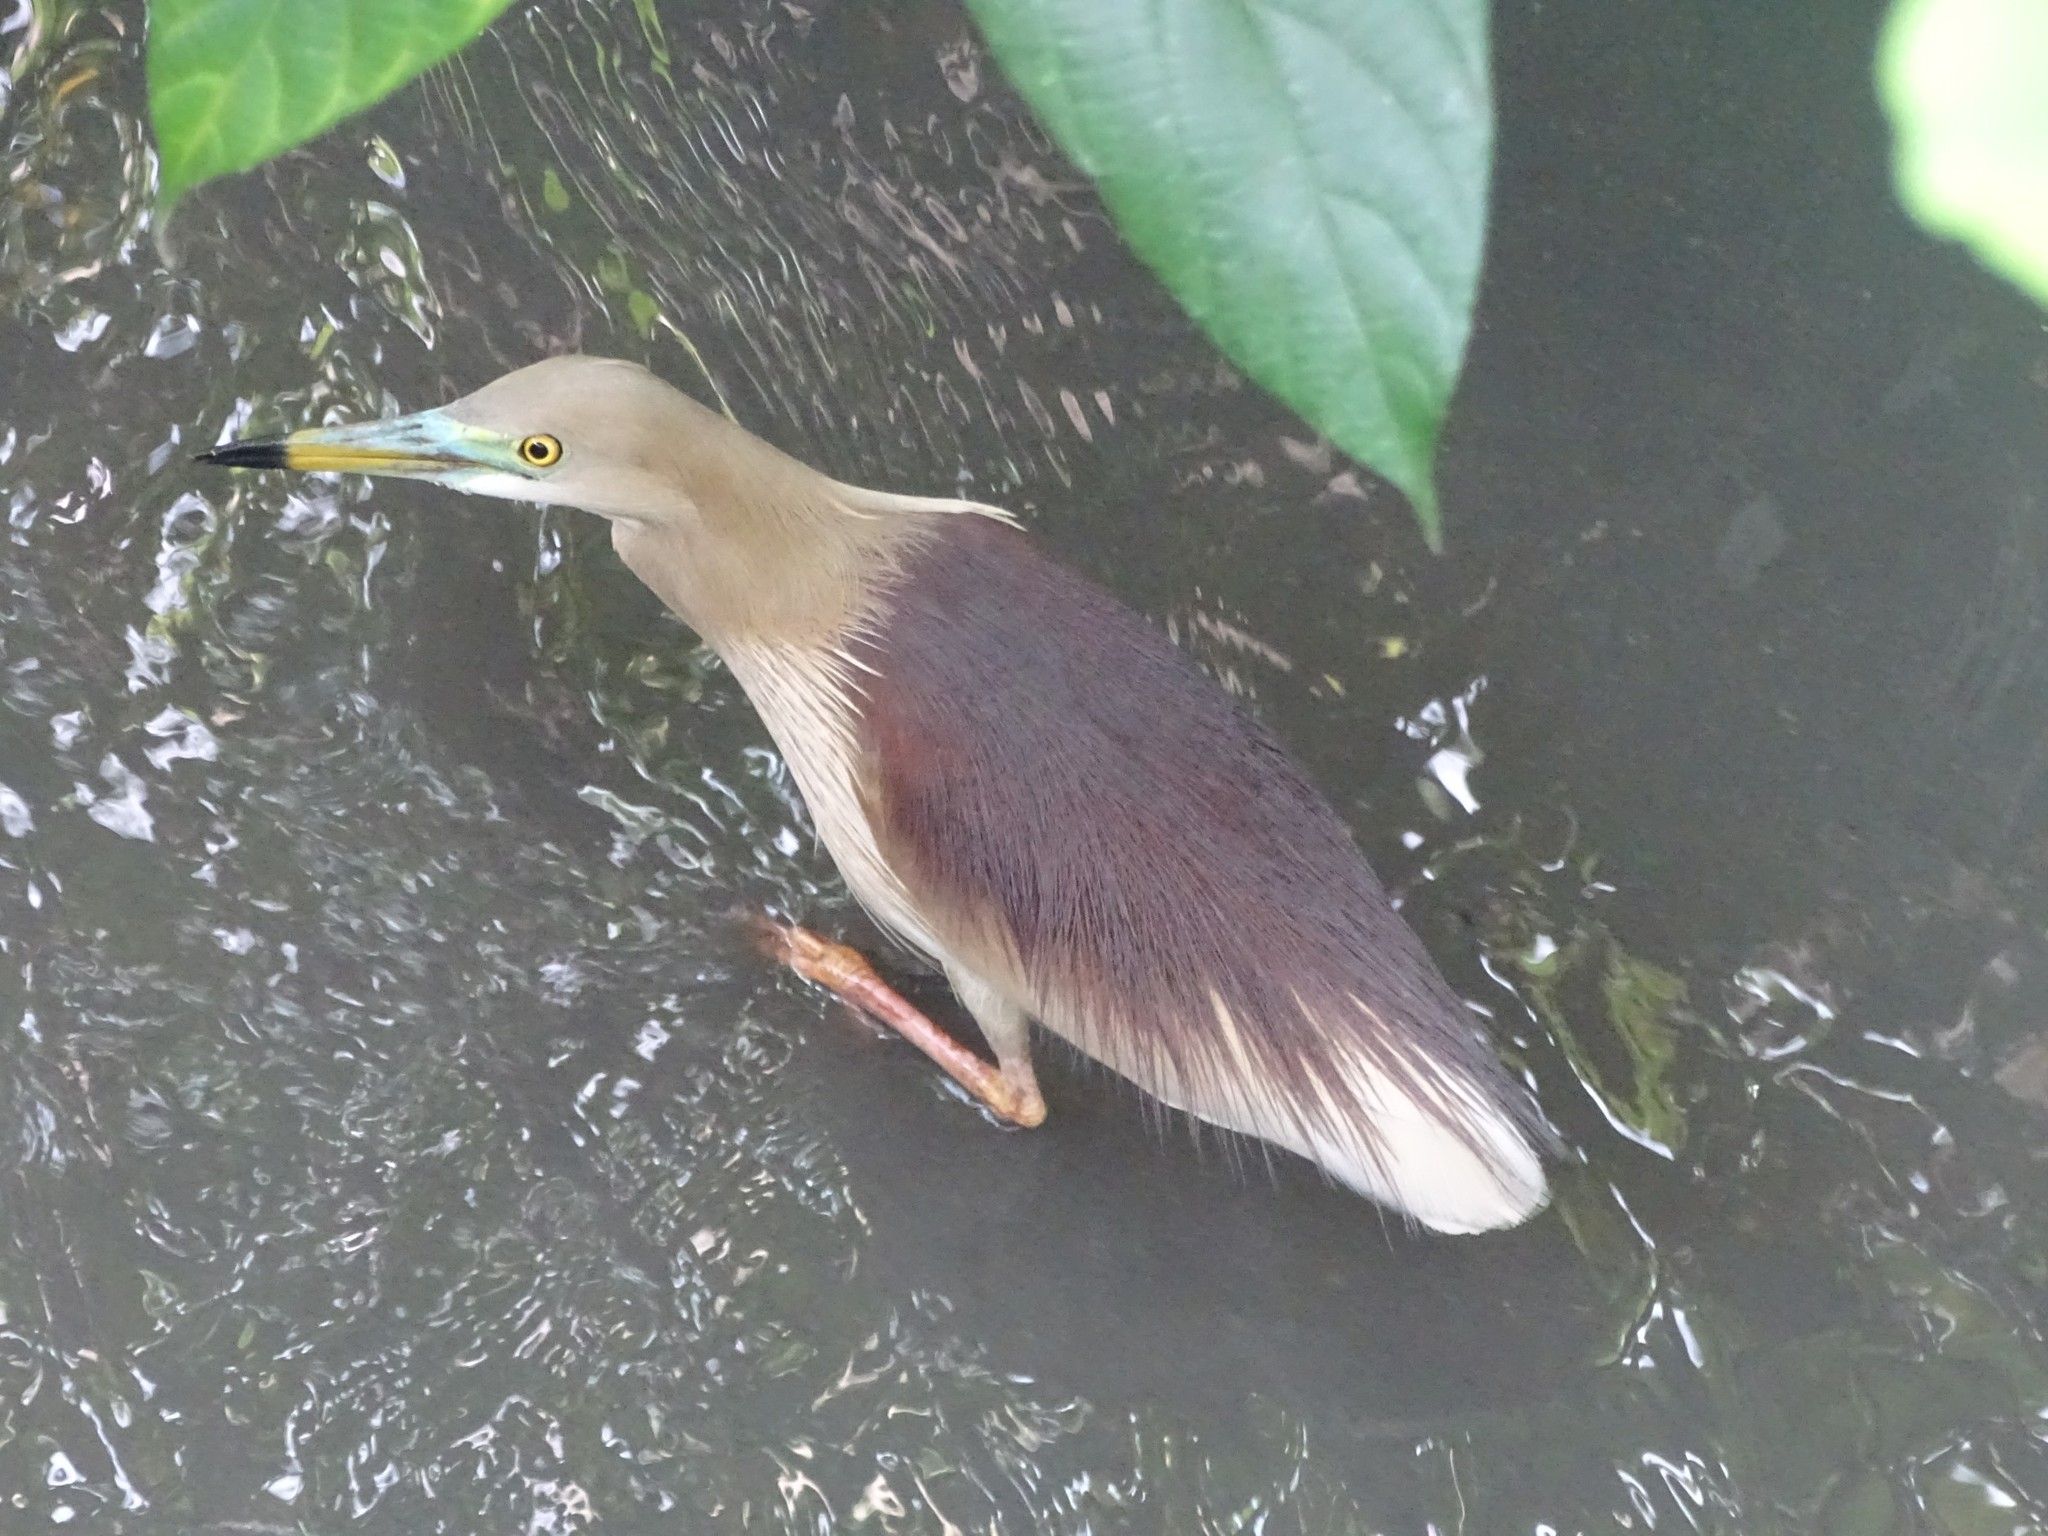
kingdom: Animalia
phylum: Chordata
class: Aves
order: Pelecaniformes
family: Ardeidae
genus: Ardeola
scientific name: Ardeola grayii
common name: Indian pond heron
